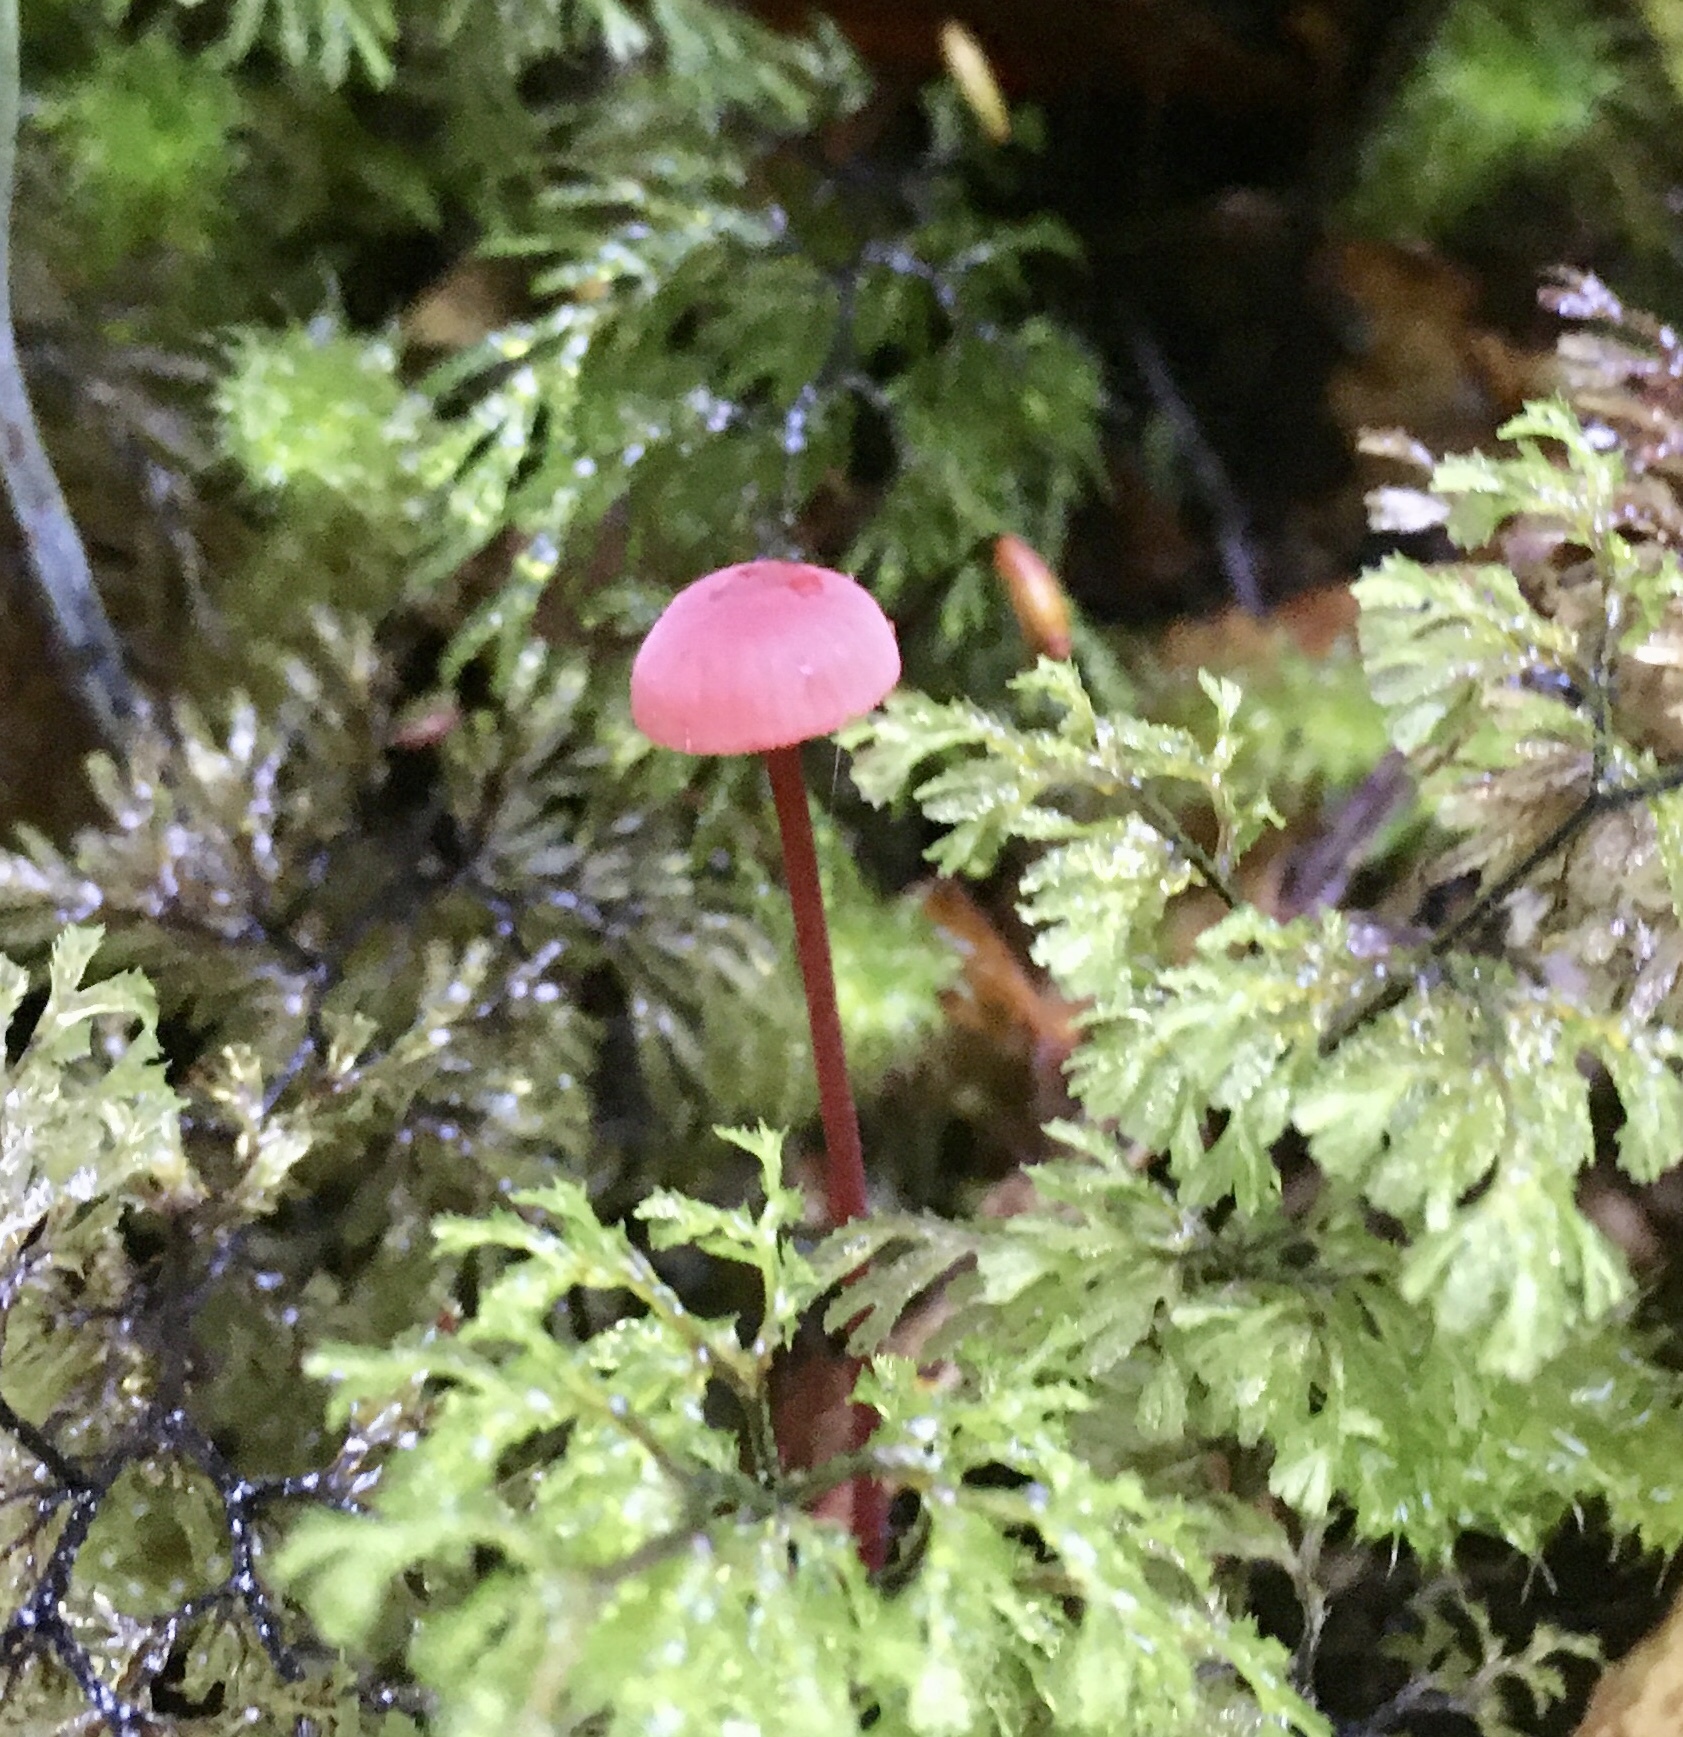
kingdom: Fungi
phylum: Basidiomycota
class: Agaricomycetes
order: Agaricales
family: Mycenaceae
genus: Mycena
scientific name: Mycena ura
